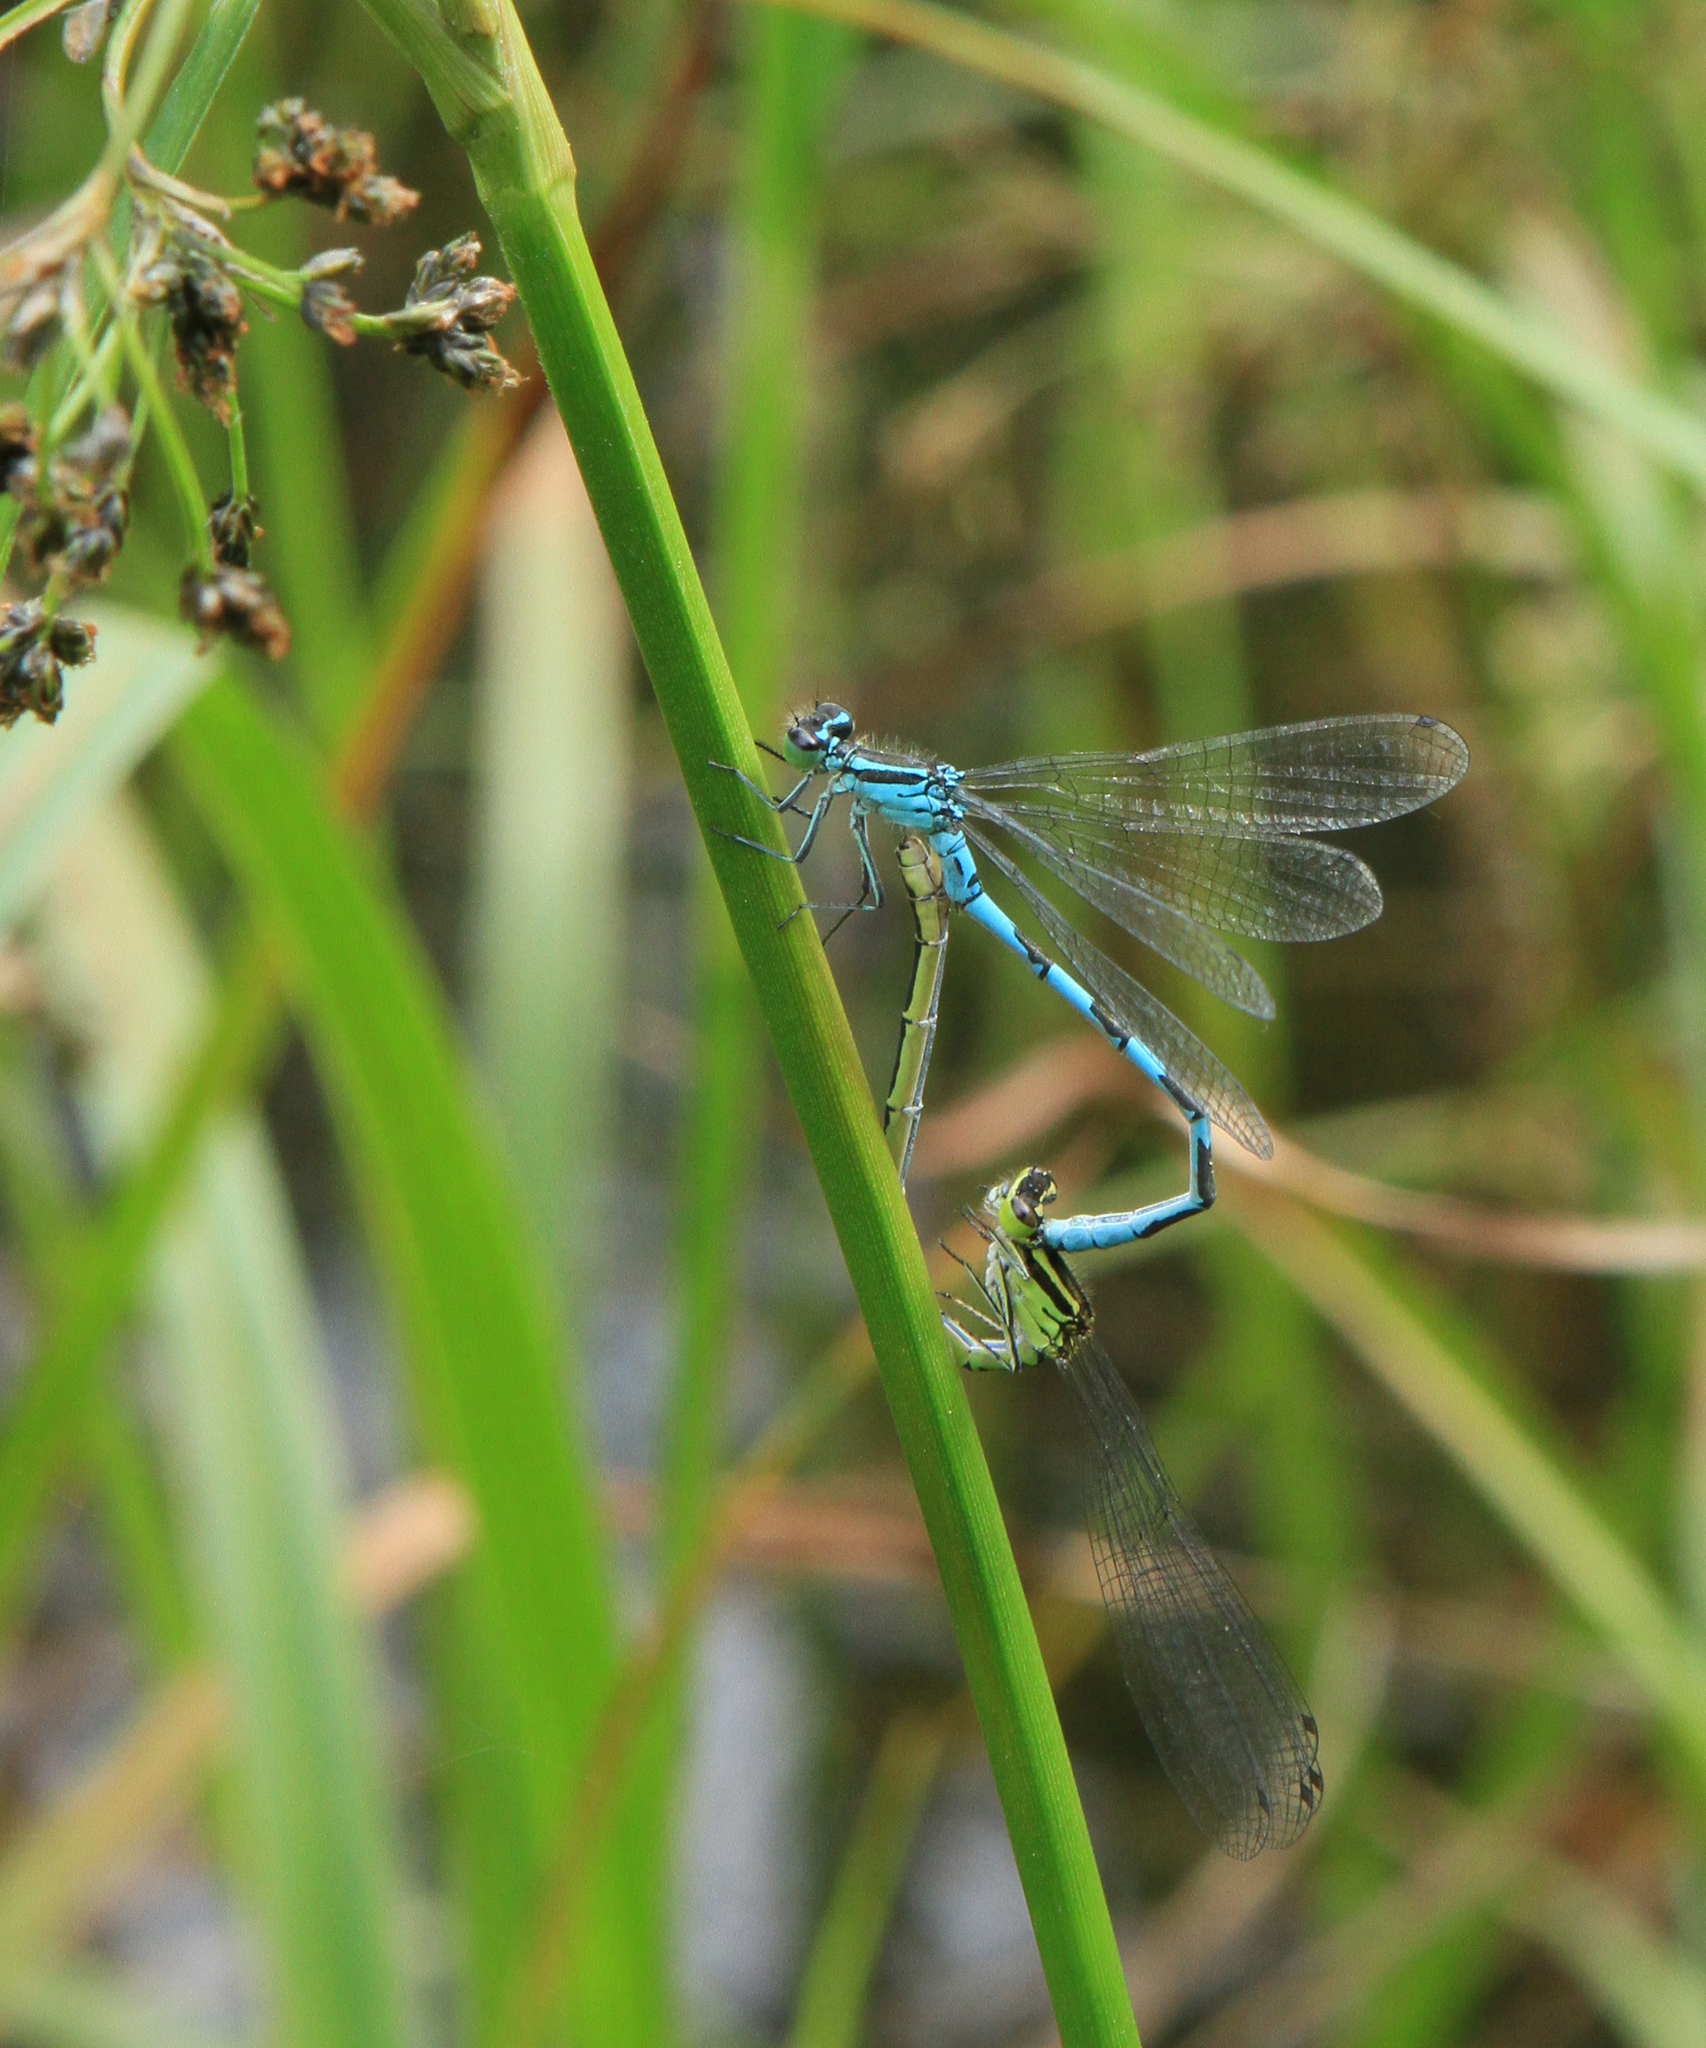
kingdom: Animalia
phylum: Arthropoda
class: Insecta
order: Odonata
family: Coenagrionidae
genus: Coenagrion
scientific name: Coenagrion hastulatum
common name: Spearhead bluet
